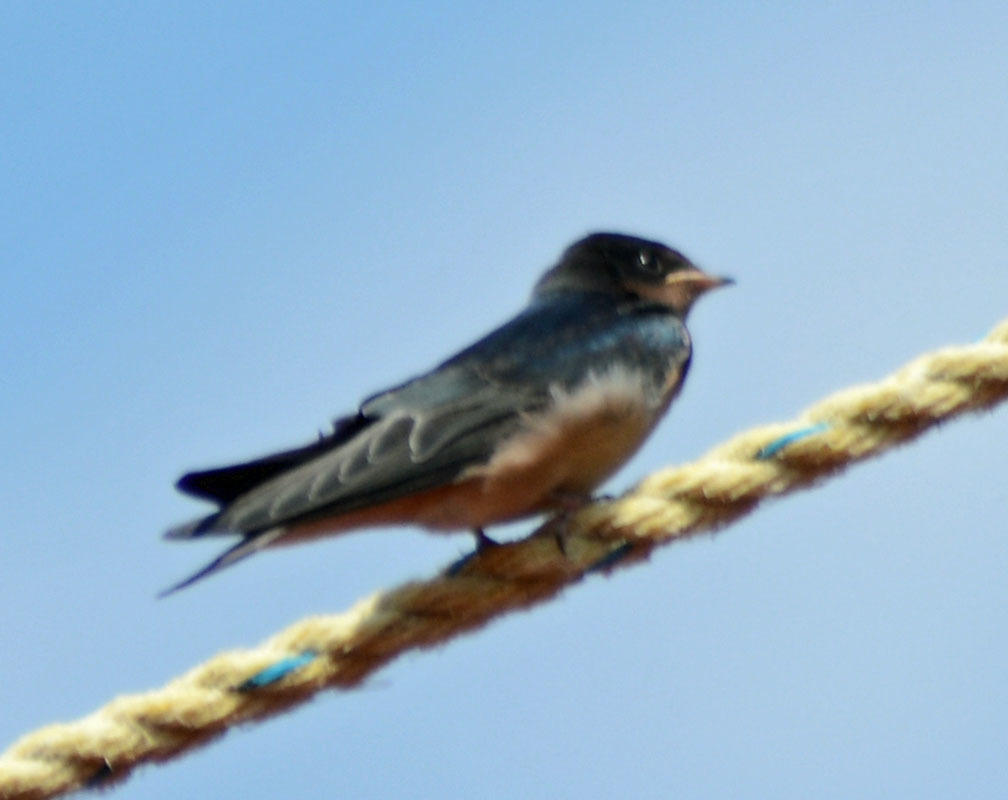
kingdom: Animalia
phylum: Chordata
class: Aves
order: Passeriformes
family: Hirundinidae
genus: Hirundo
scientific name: Hirundo rustica
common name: Barn swallow
